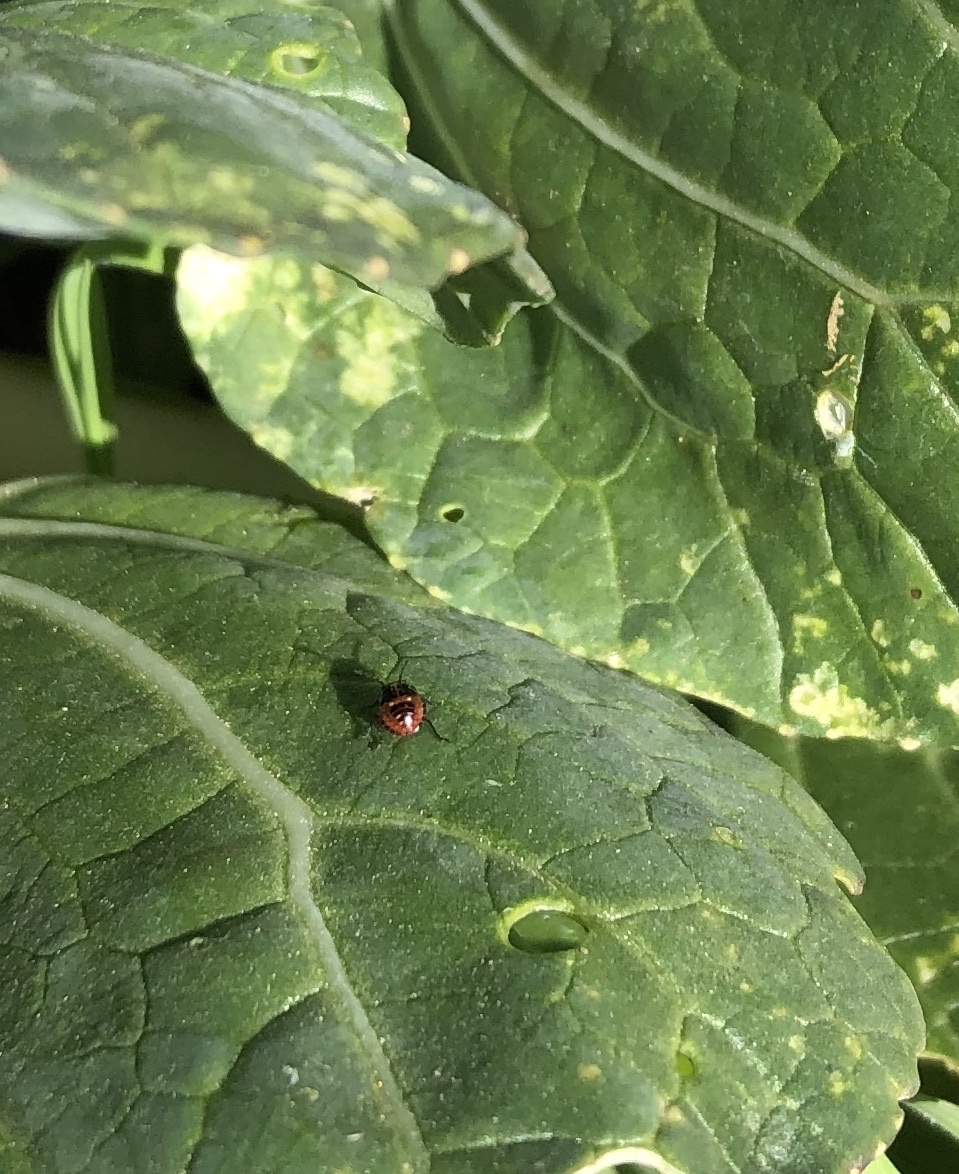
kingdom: Animalia
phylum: Arthropoda
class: Insecta
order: Hemiptera
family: Pentatomidae
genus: Bagrada
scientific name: Bagrada hilaris
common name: Bagrada bug
